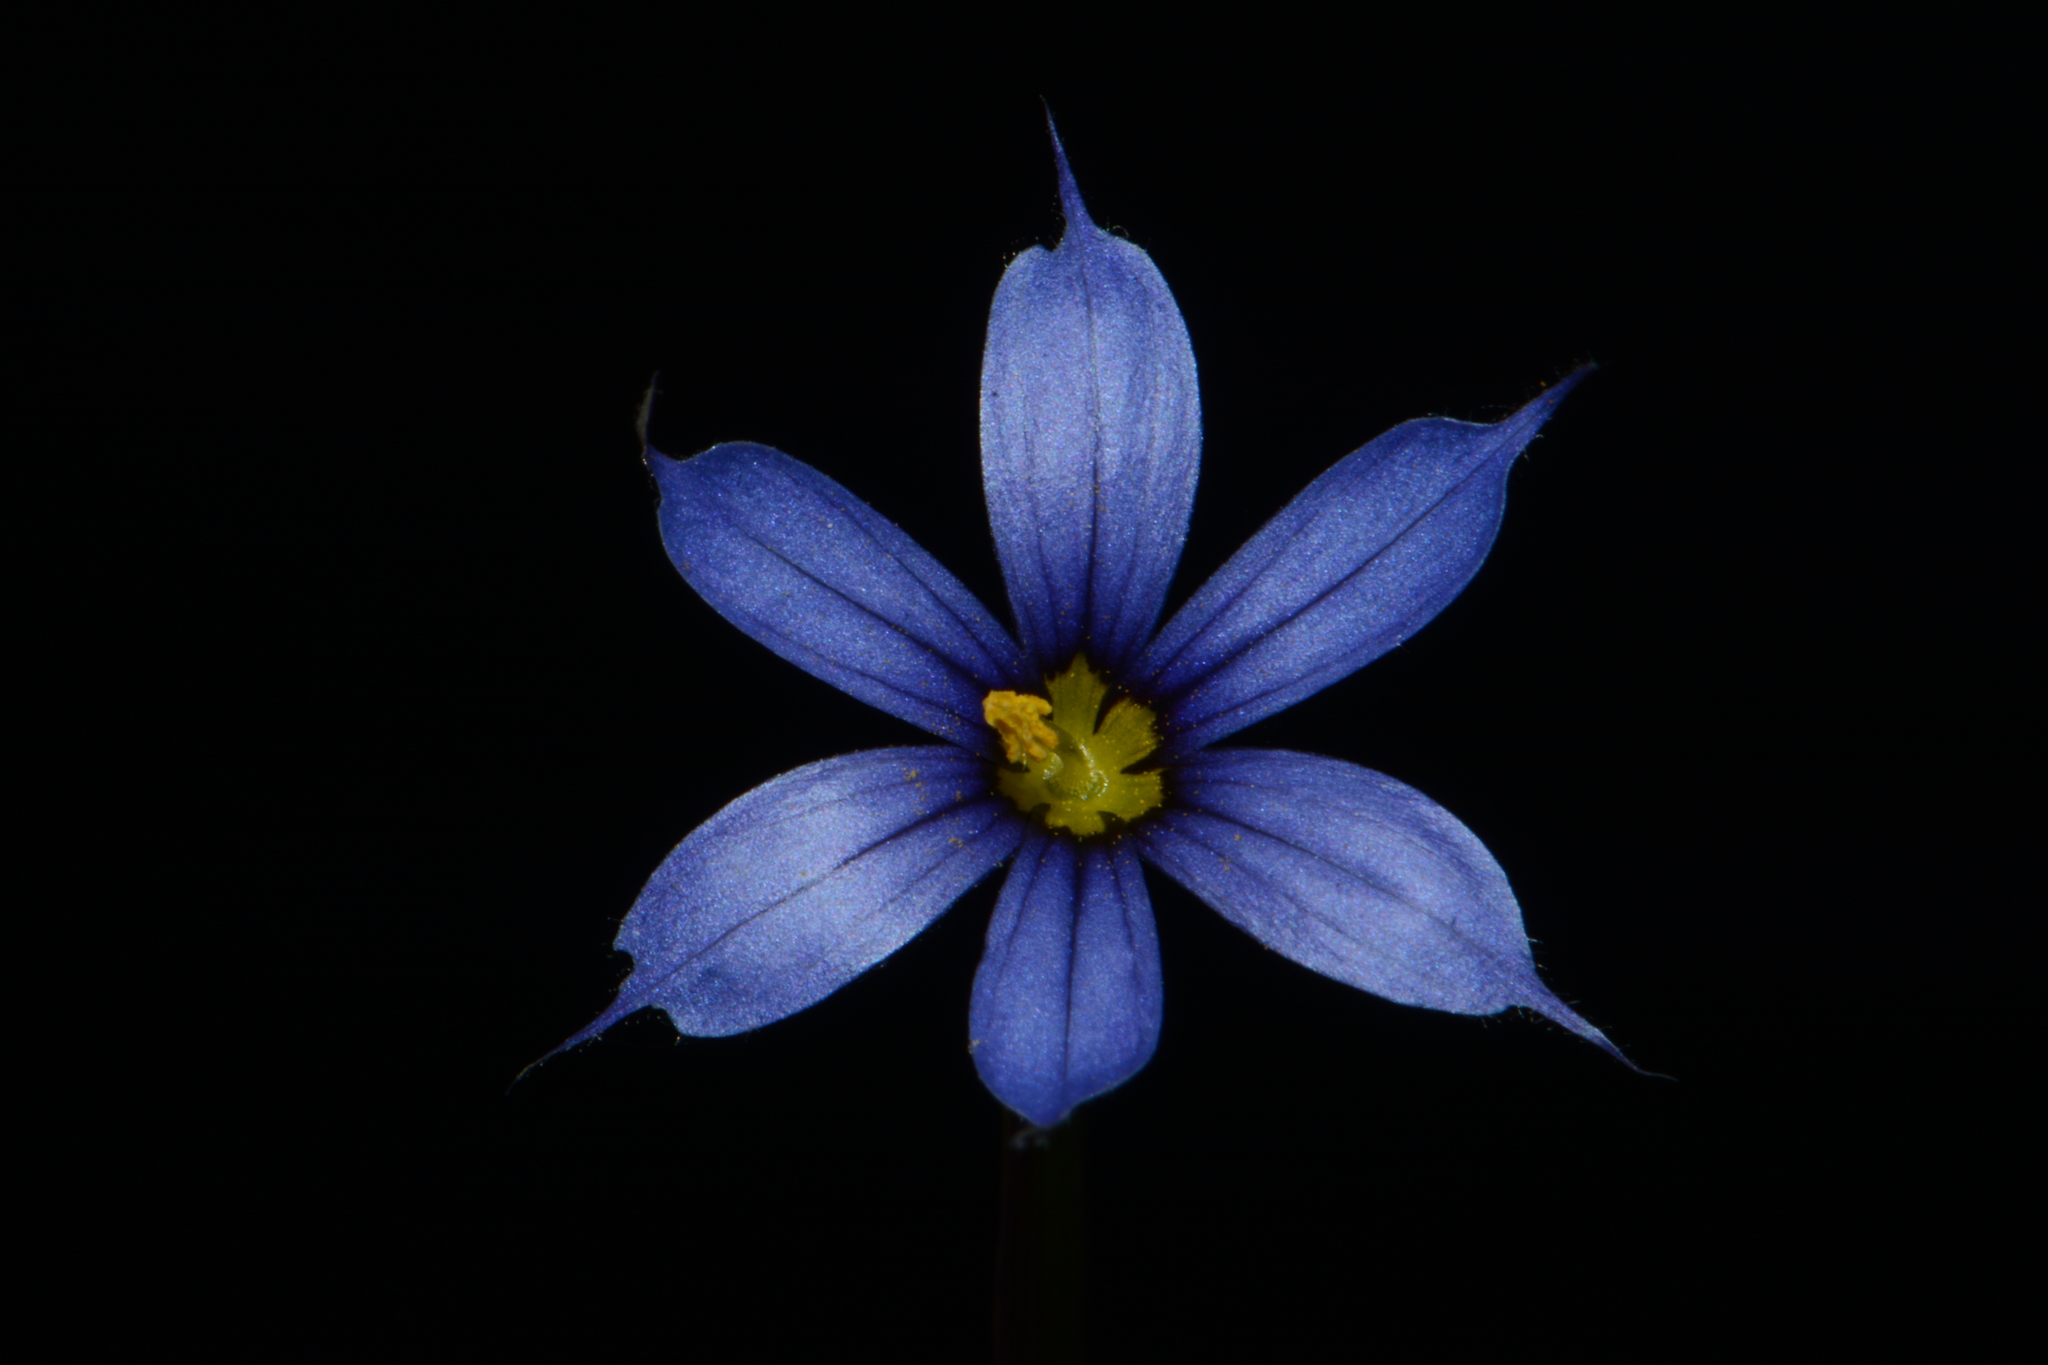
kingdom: Plantae
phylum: Tracheophyta
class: Liliopsida
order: Asparagales
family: Iridaceae
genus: Sisyrinchium
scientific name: Sisyrinchium angustifolium
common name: Narrow-leaf blue-eyed-grass
